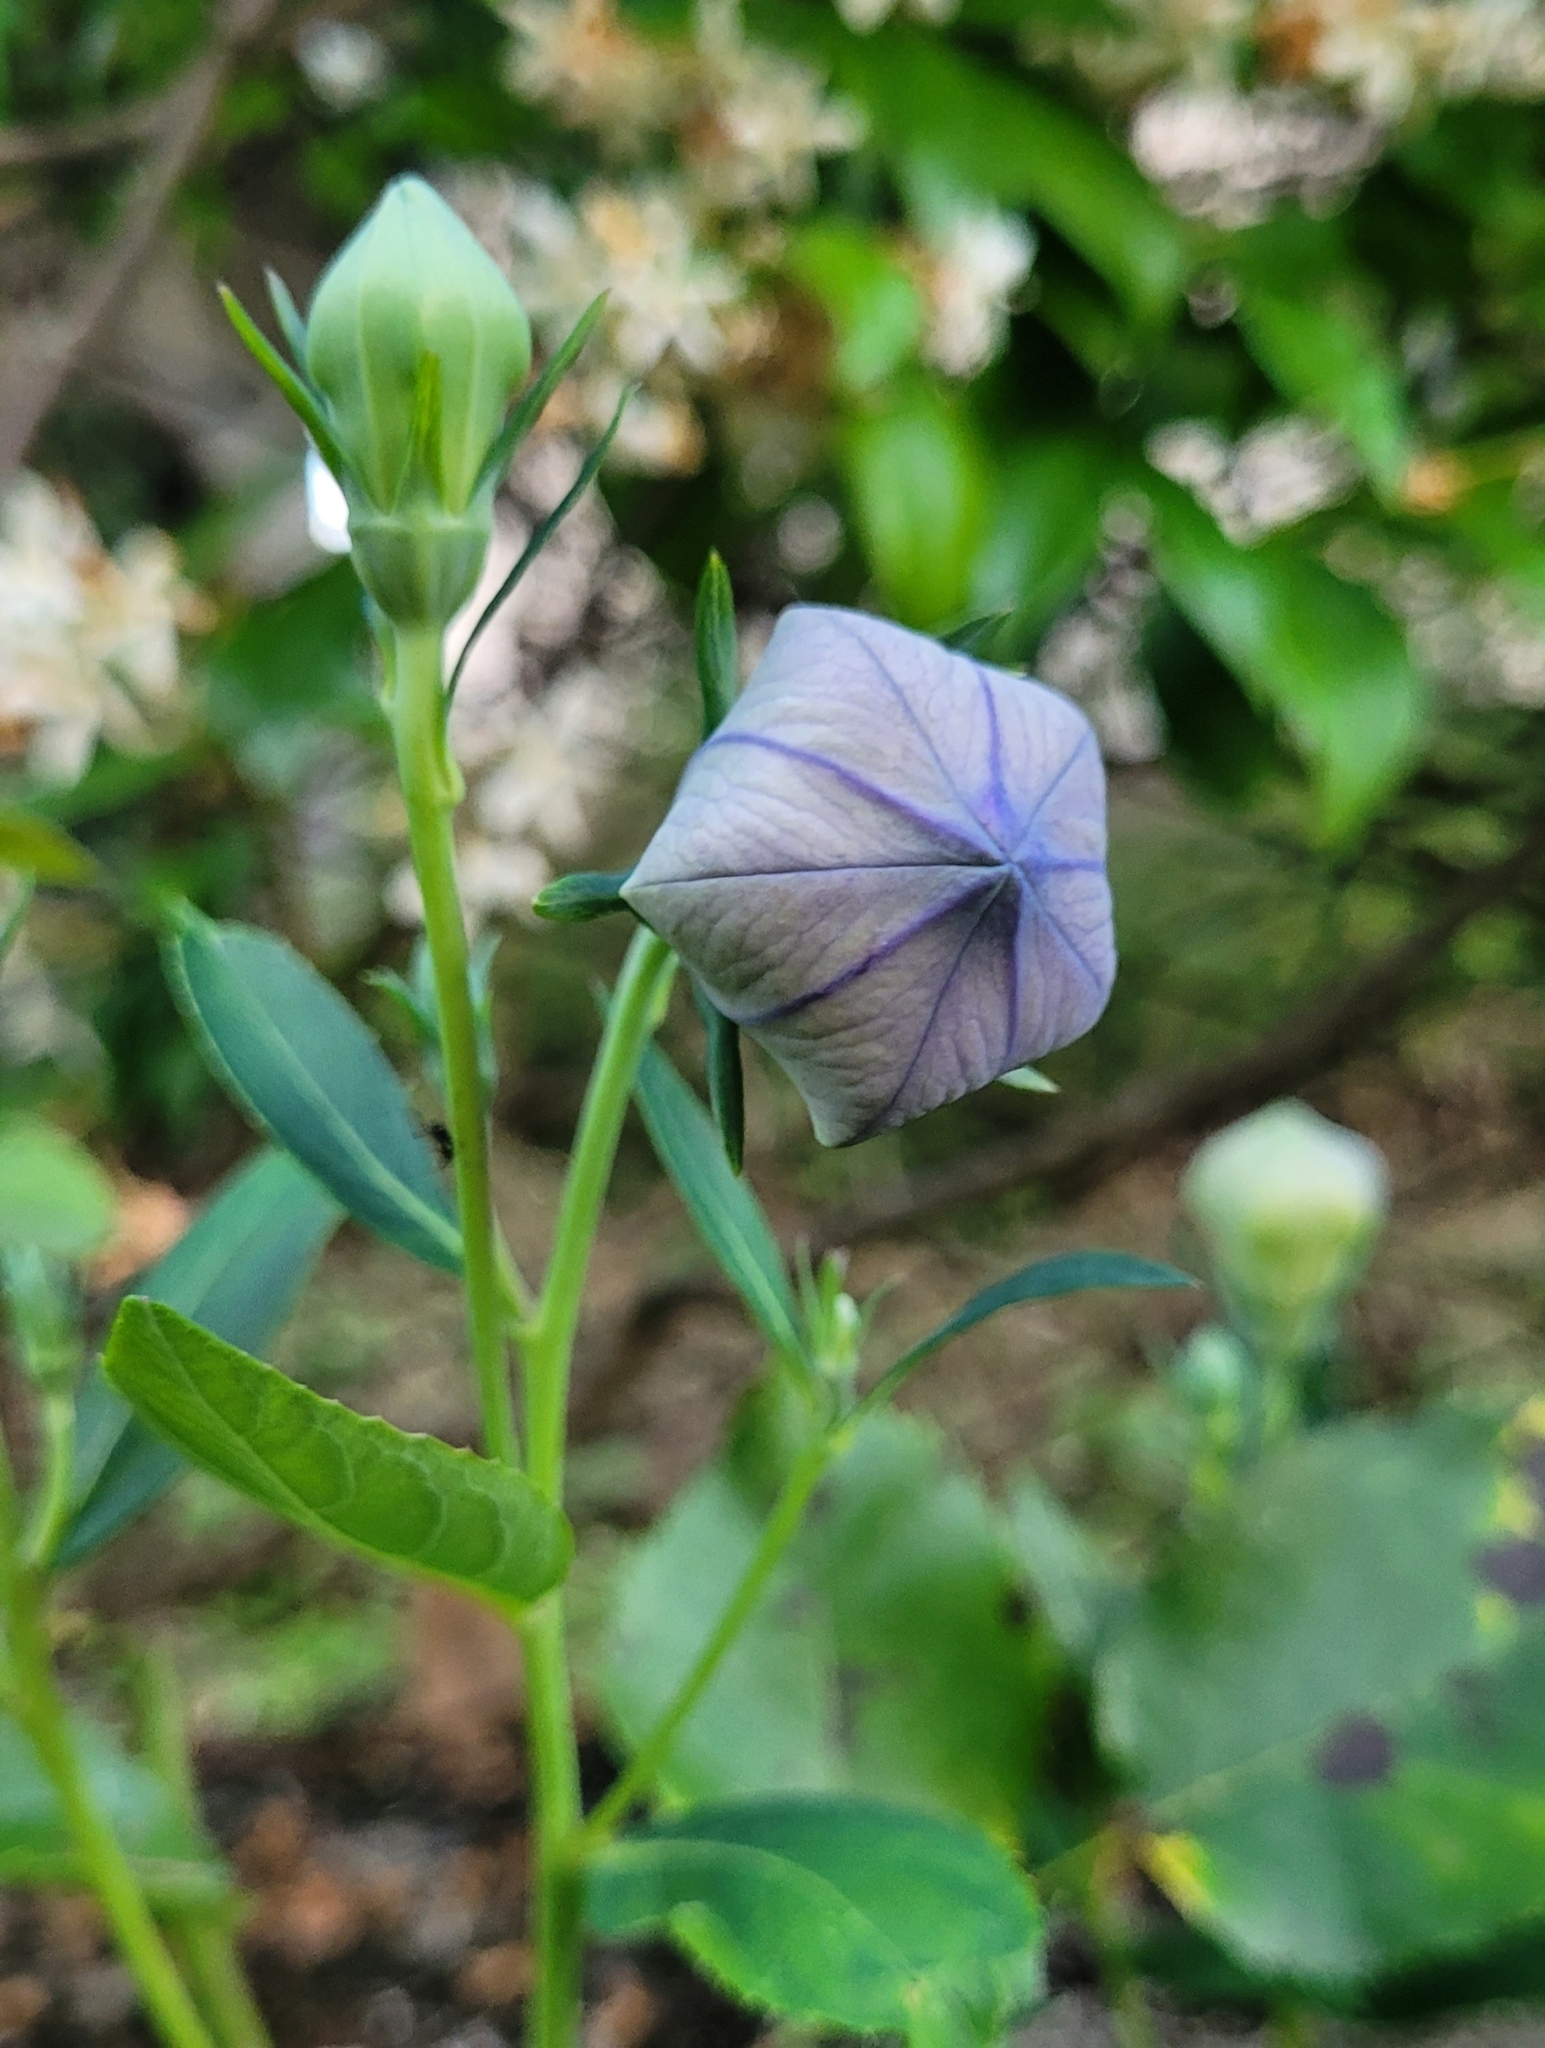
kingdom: Plantae
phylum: Tracheophyta
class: Magnoliopsida
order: Asterales
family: Campanulaceae
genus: Platycodon
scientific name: Platycodon grandiflorus
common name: Balloon-flower
